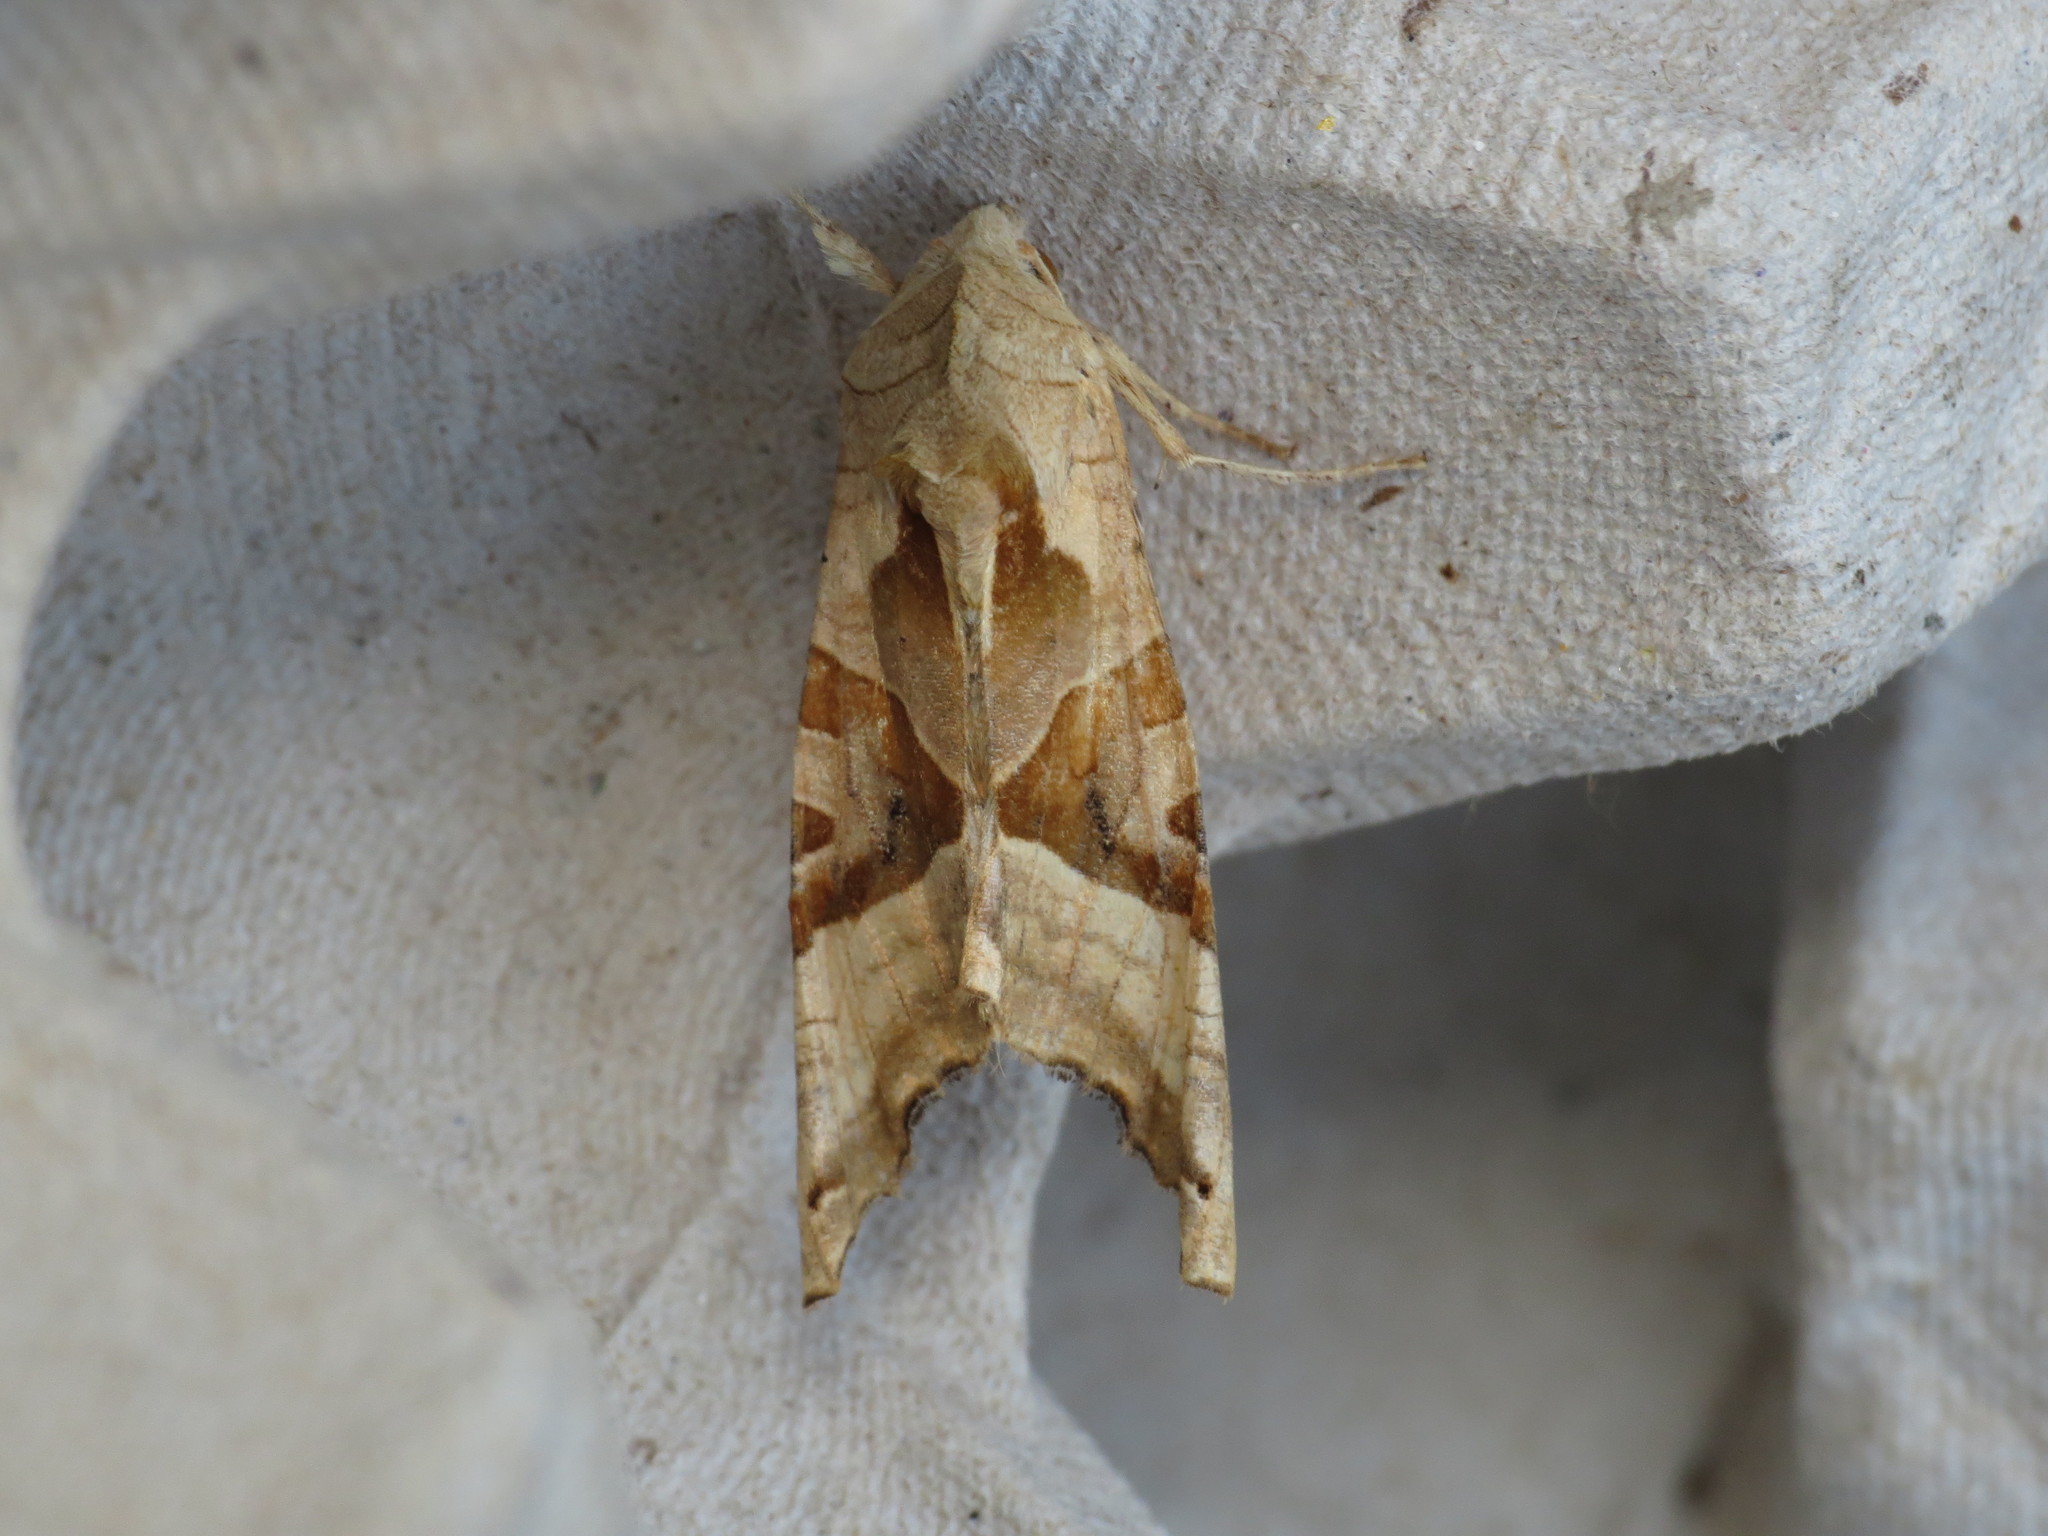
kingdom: Animalia
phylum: Arthropoda
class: Insecta
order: Lepidoptera
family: Noctuidae
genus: Phlogophora
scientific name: Phlogophora meticulosa
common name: Angle shades
